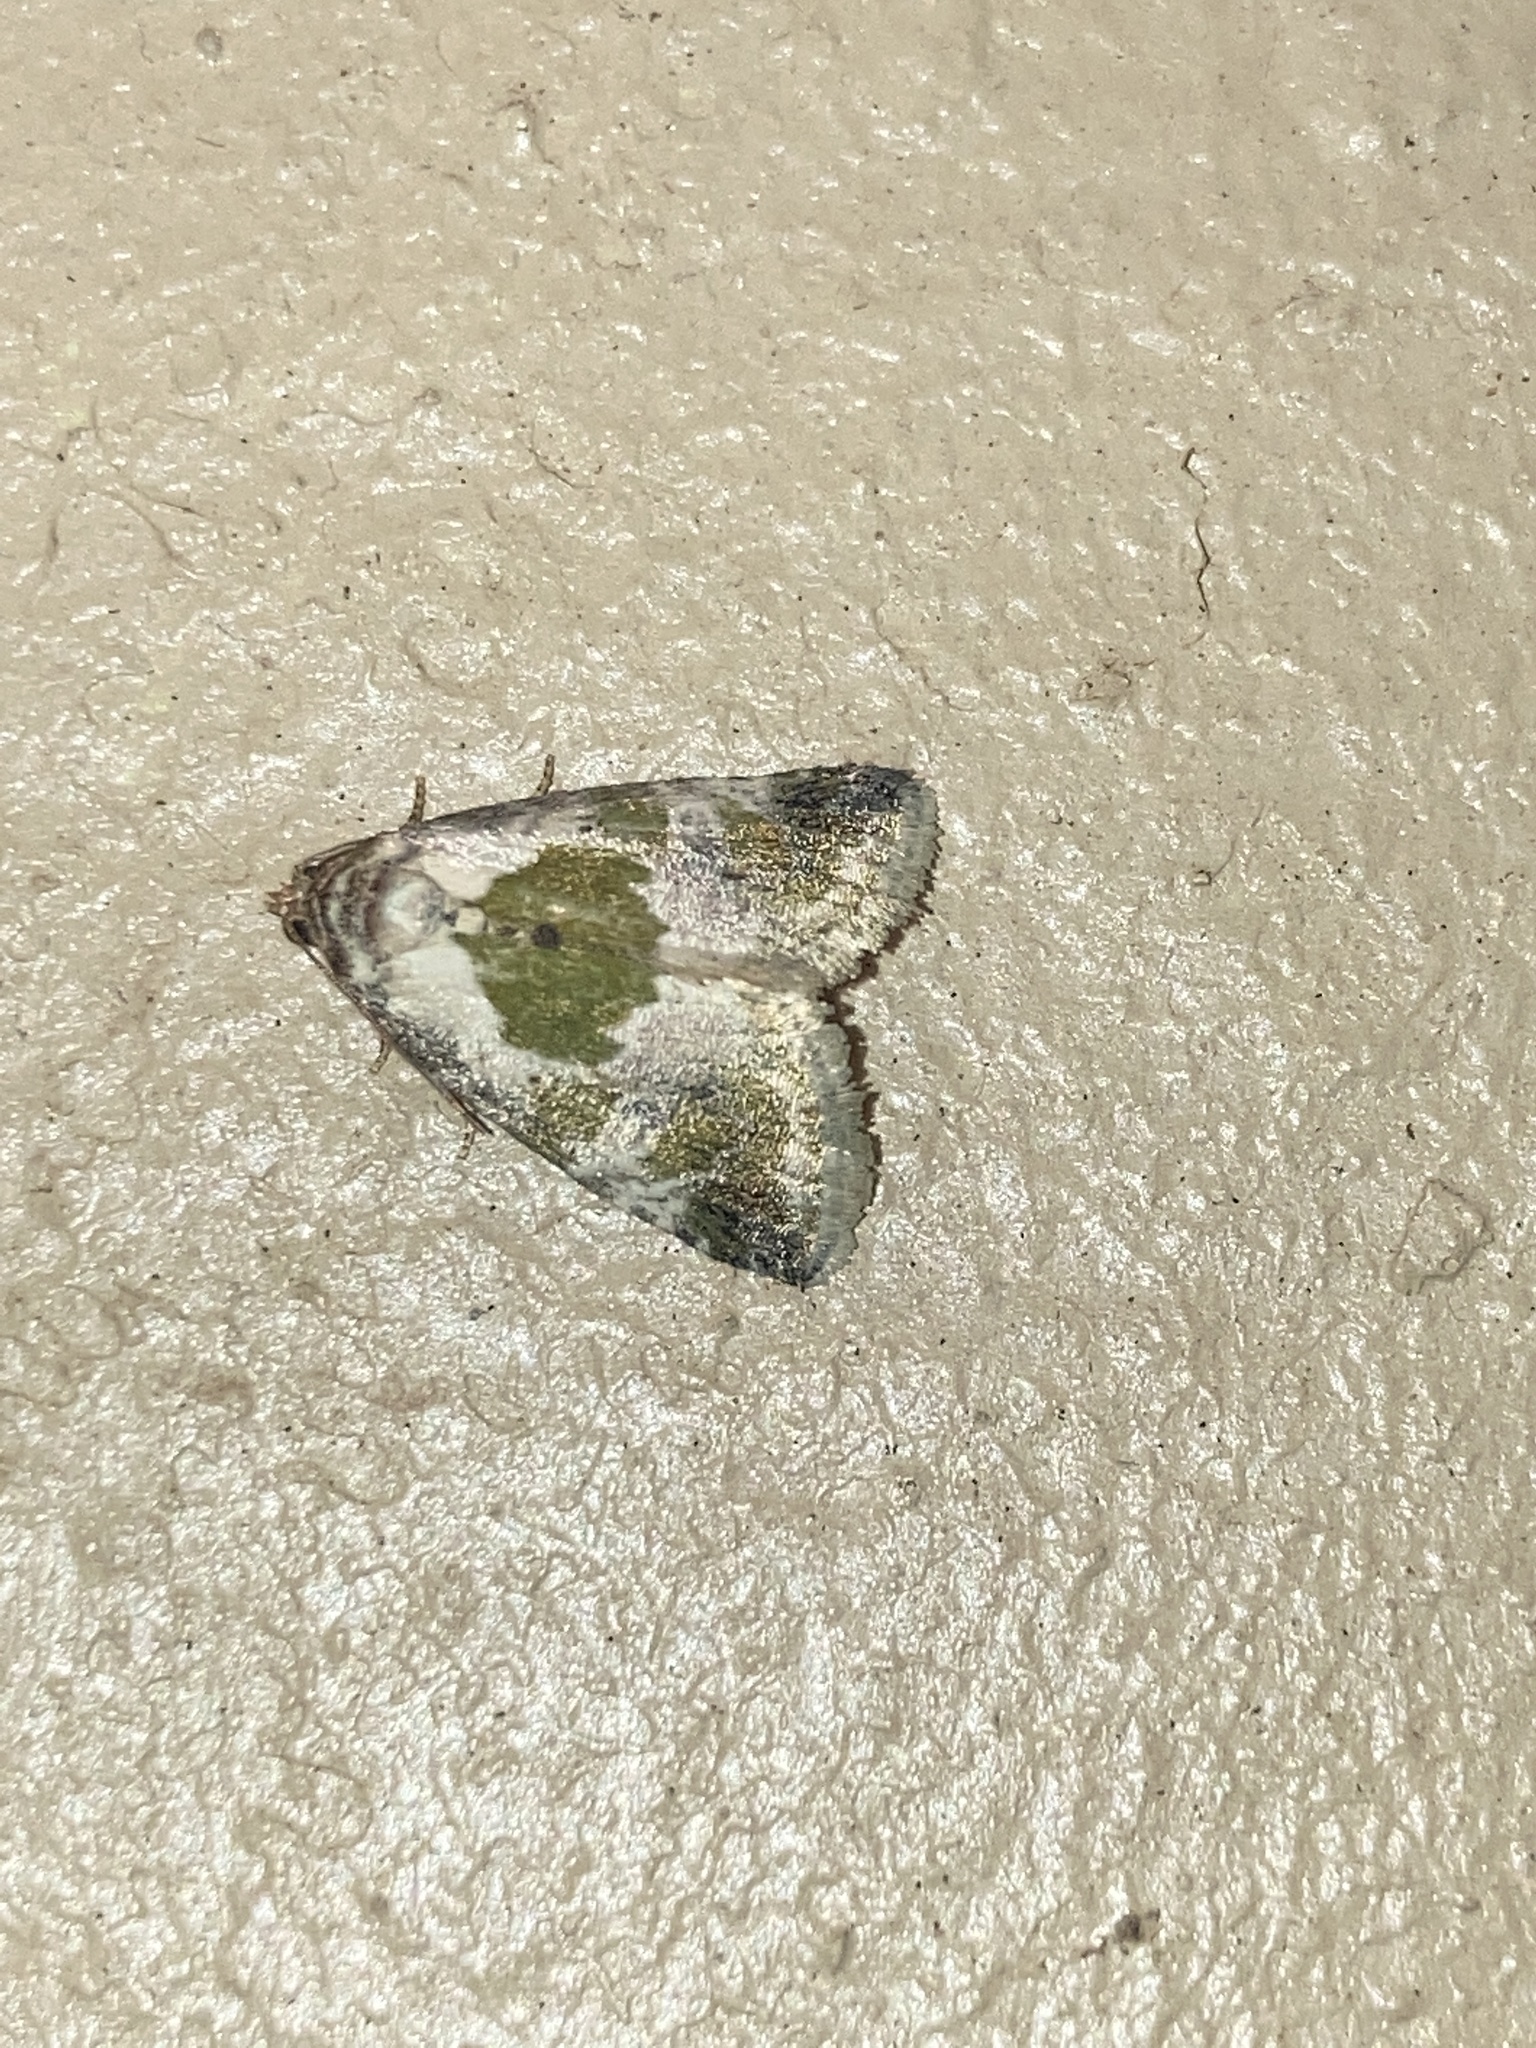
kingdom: Animalia
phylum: Arthropoda
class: Insecta
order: Lepidoptera
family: Noctuidae
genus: Maliattha
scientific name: Maliattha synochitis
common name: Black-dotted glyph
